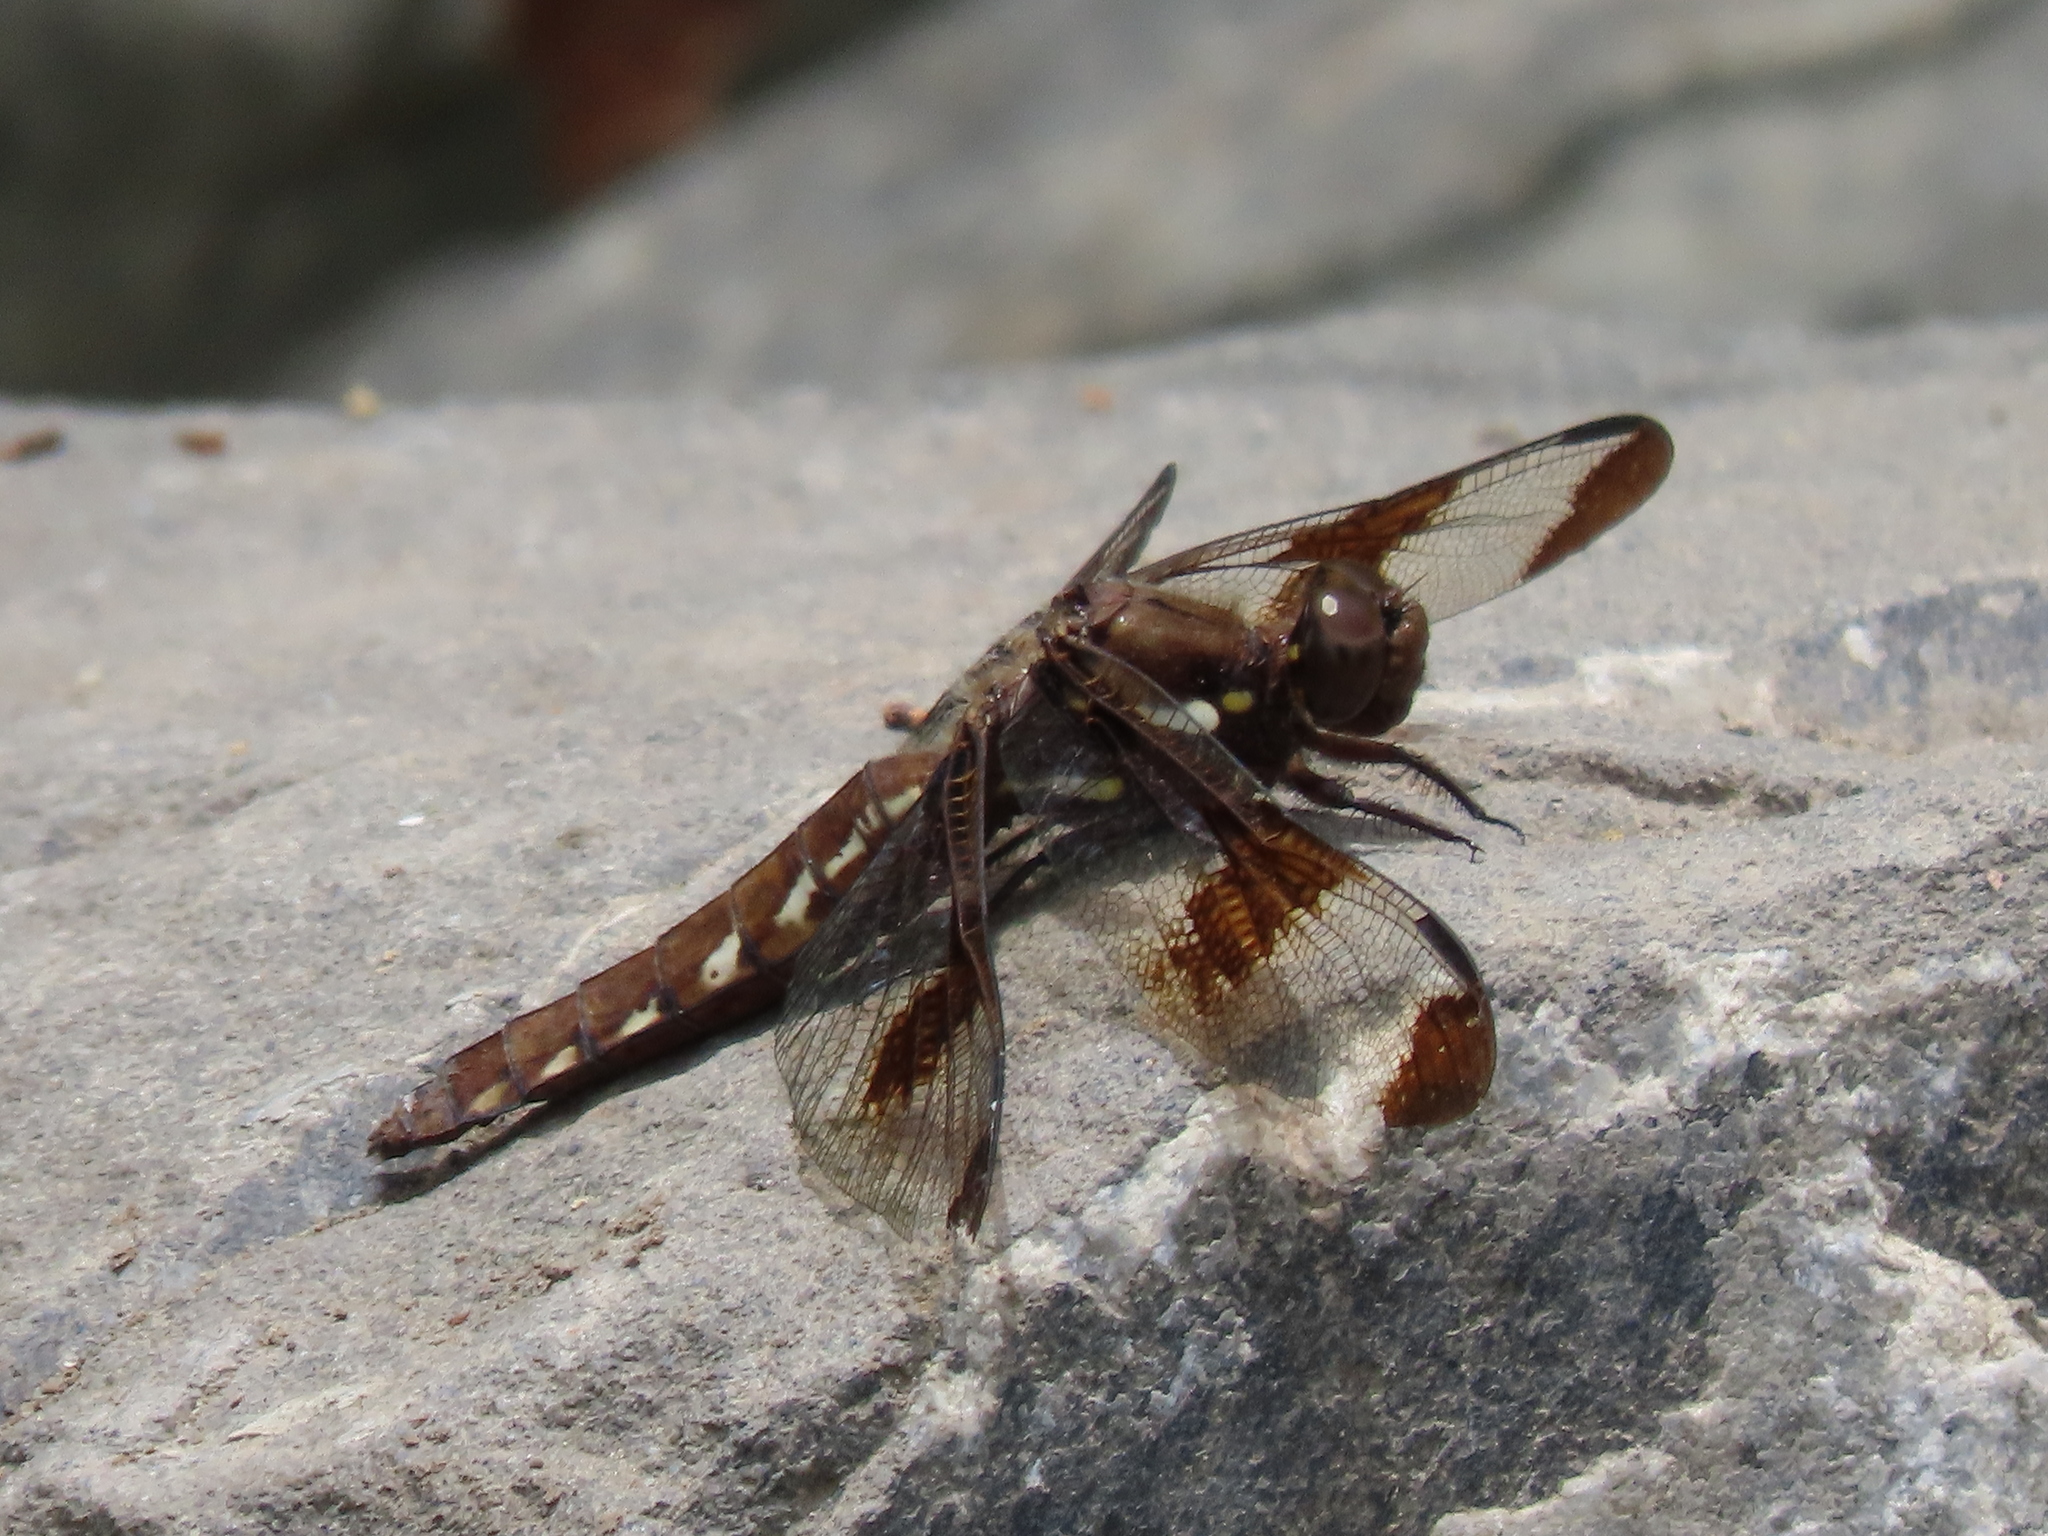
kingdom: Animalia
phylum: Arthropoda
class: Insecta
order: Odonata
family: Libellulidae
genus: Plathemis
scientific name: Plathemis lydia
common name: Common whitetail
